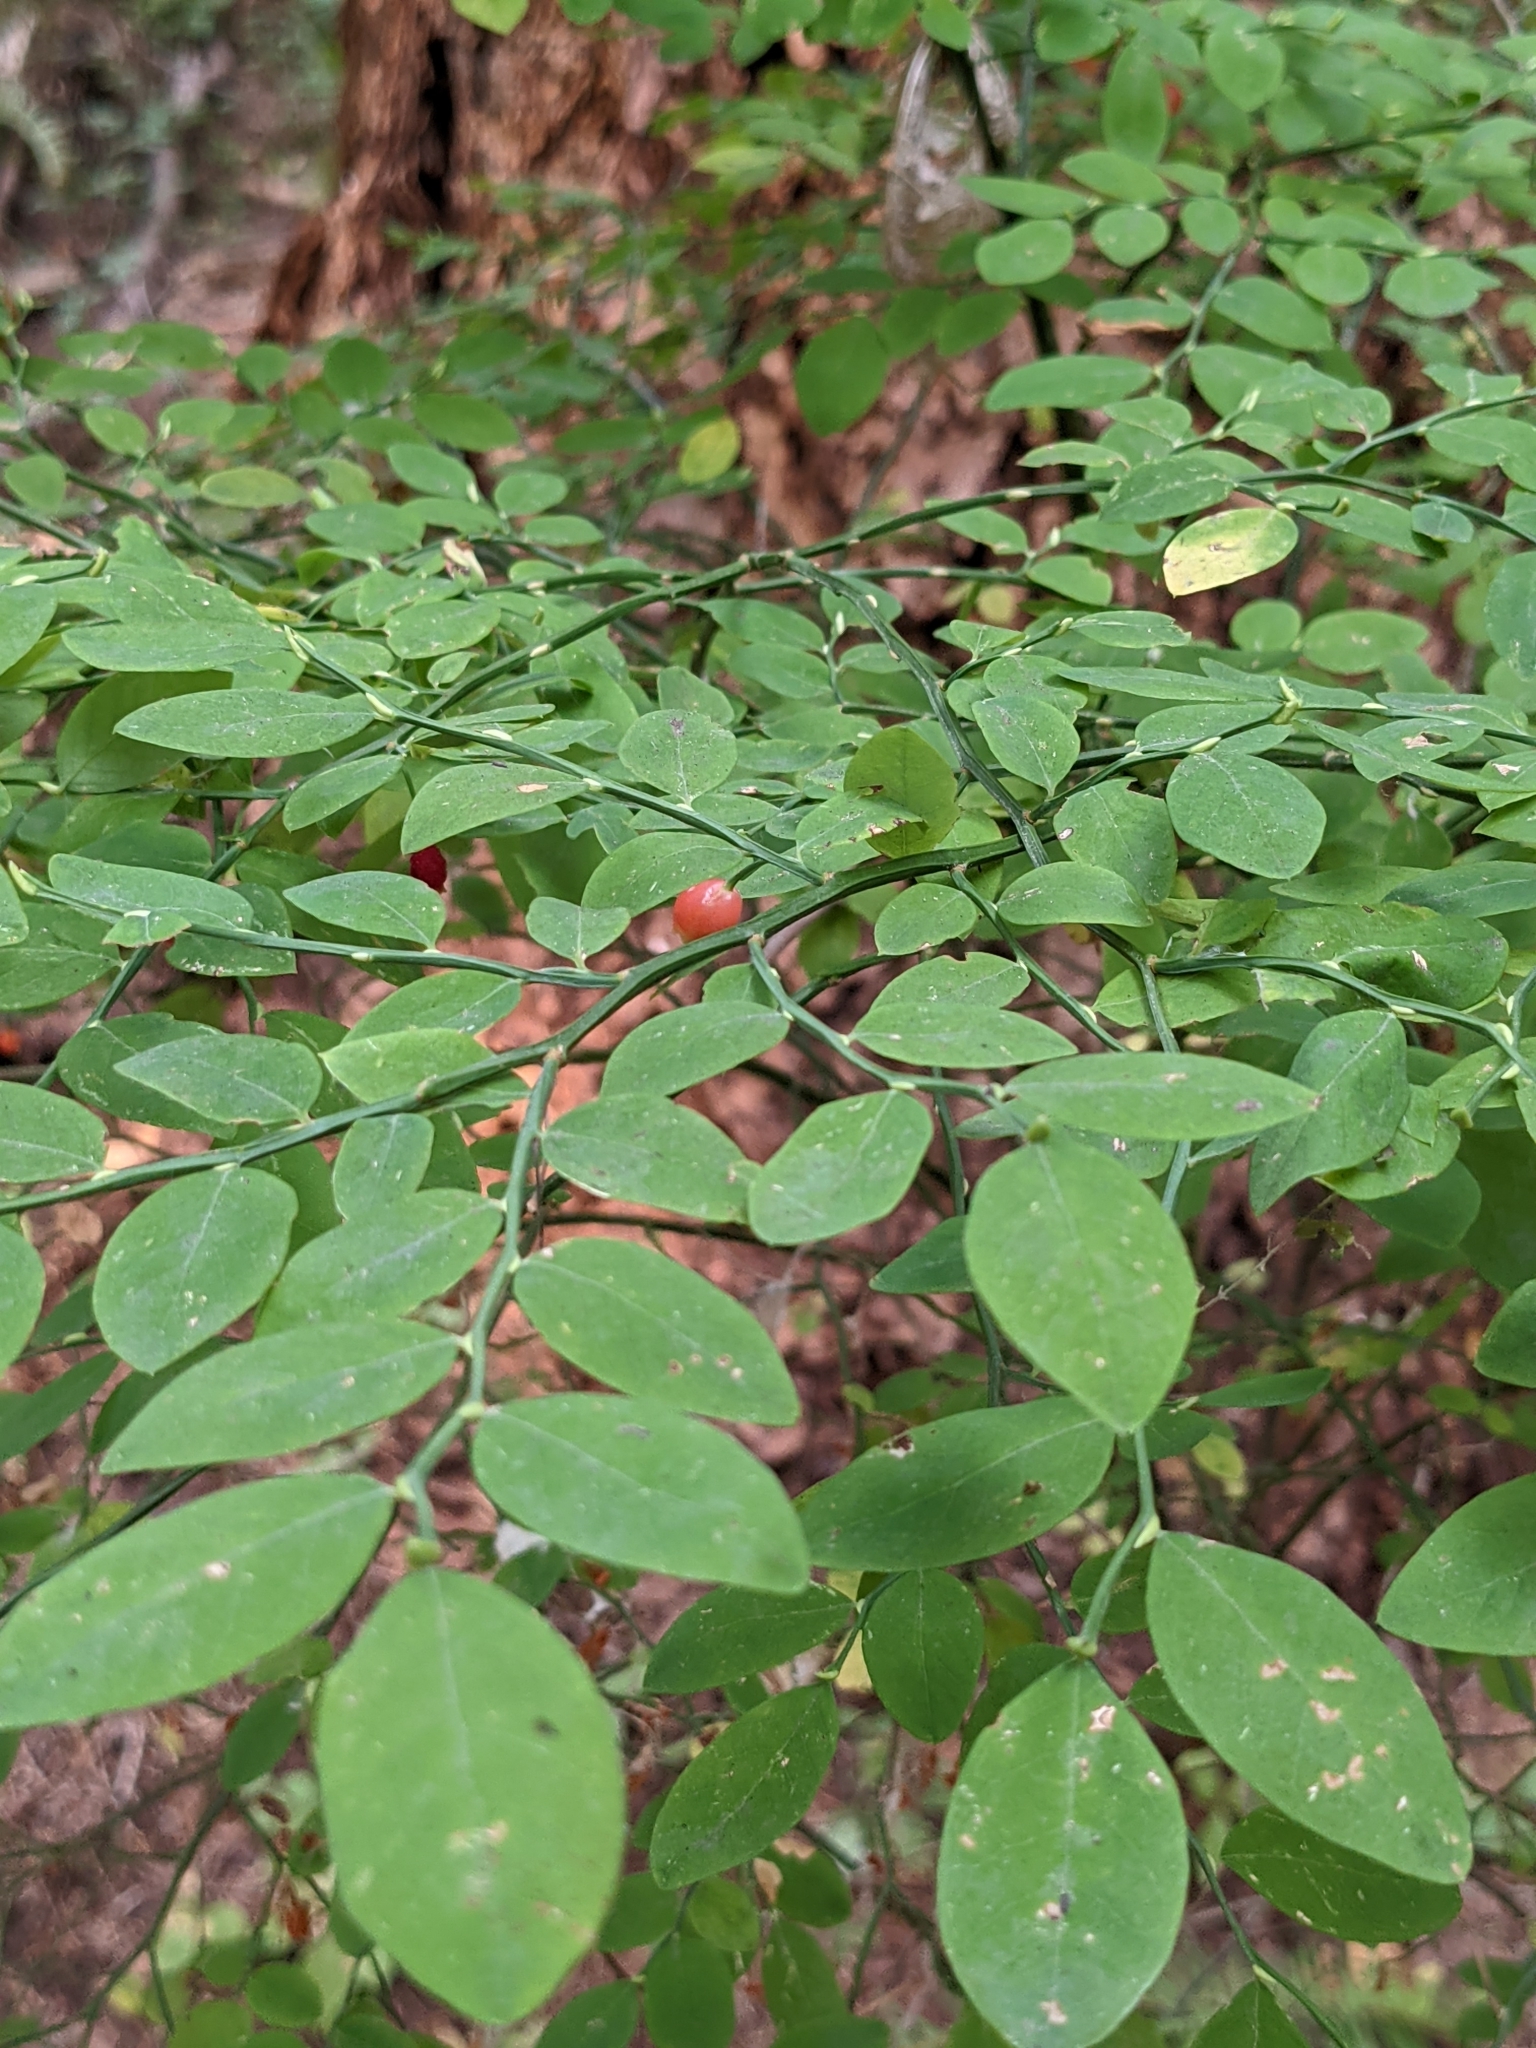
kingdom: Plantae
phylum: Tracheophyta
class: Magnoliopsida
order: Ericales
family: Ericaceae
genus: Vaccinium
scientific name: Vaccinium parvifolium
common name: Red-huckleberry
